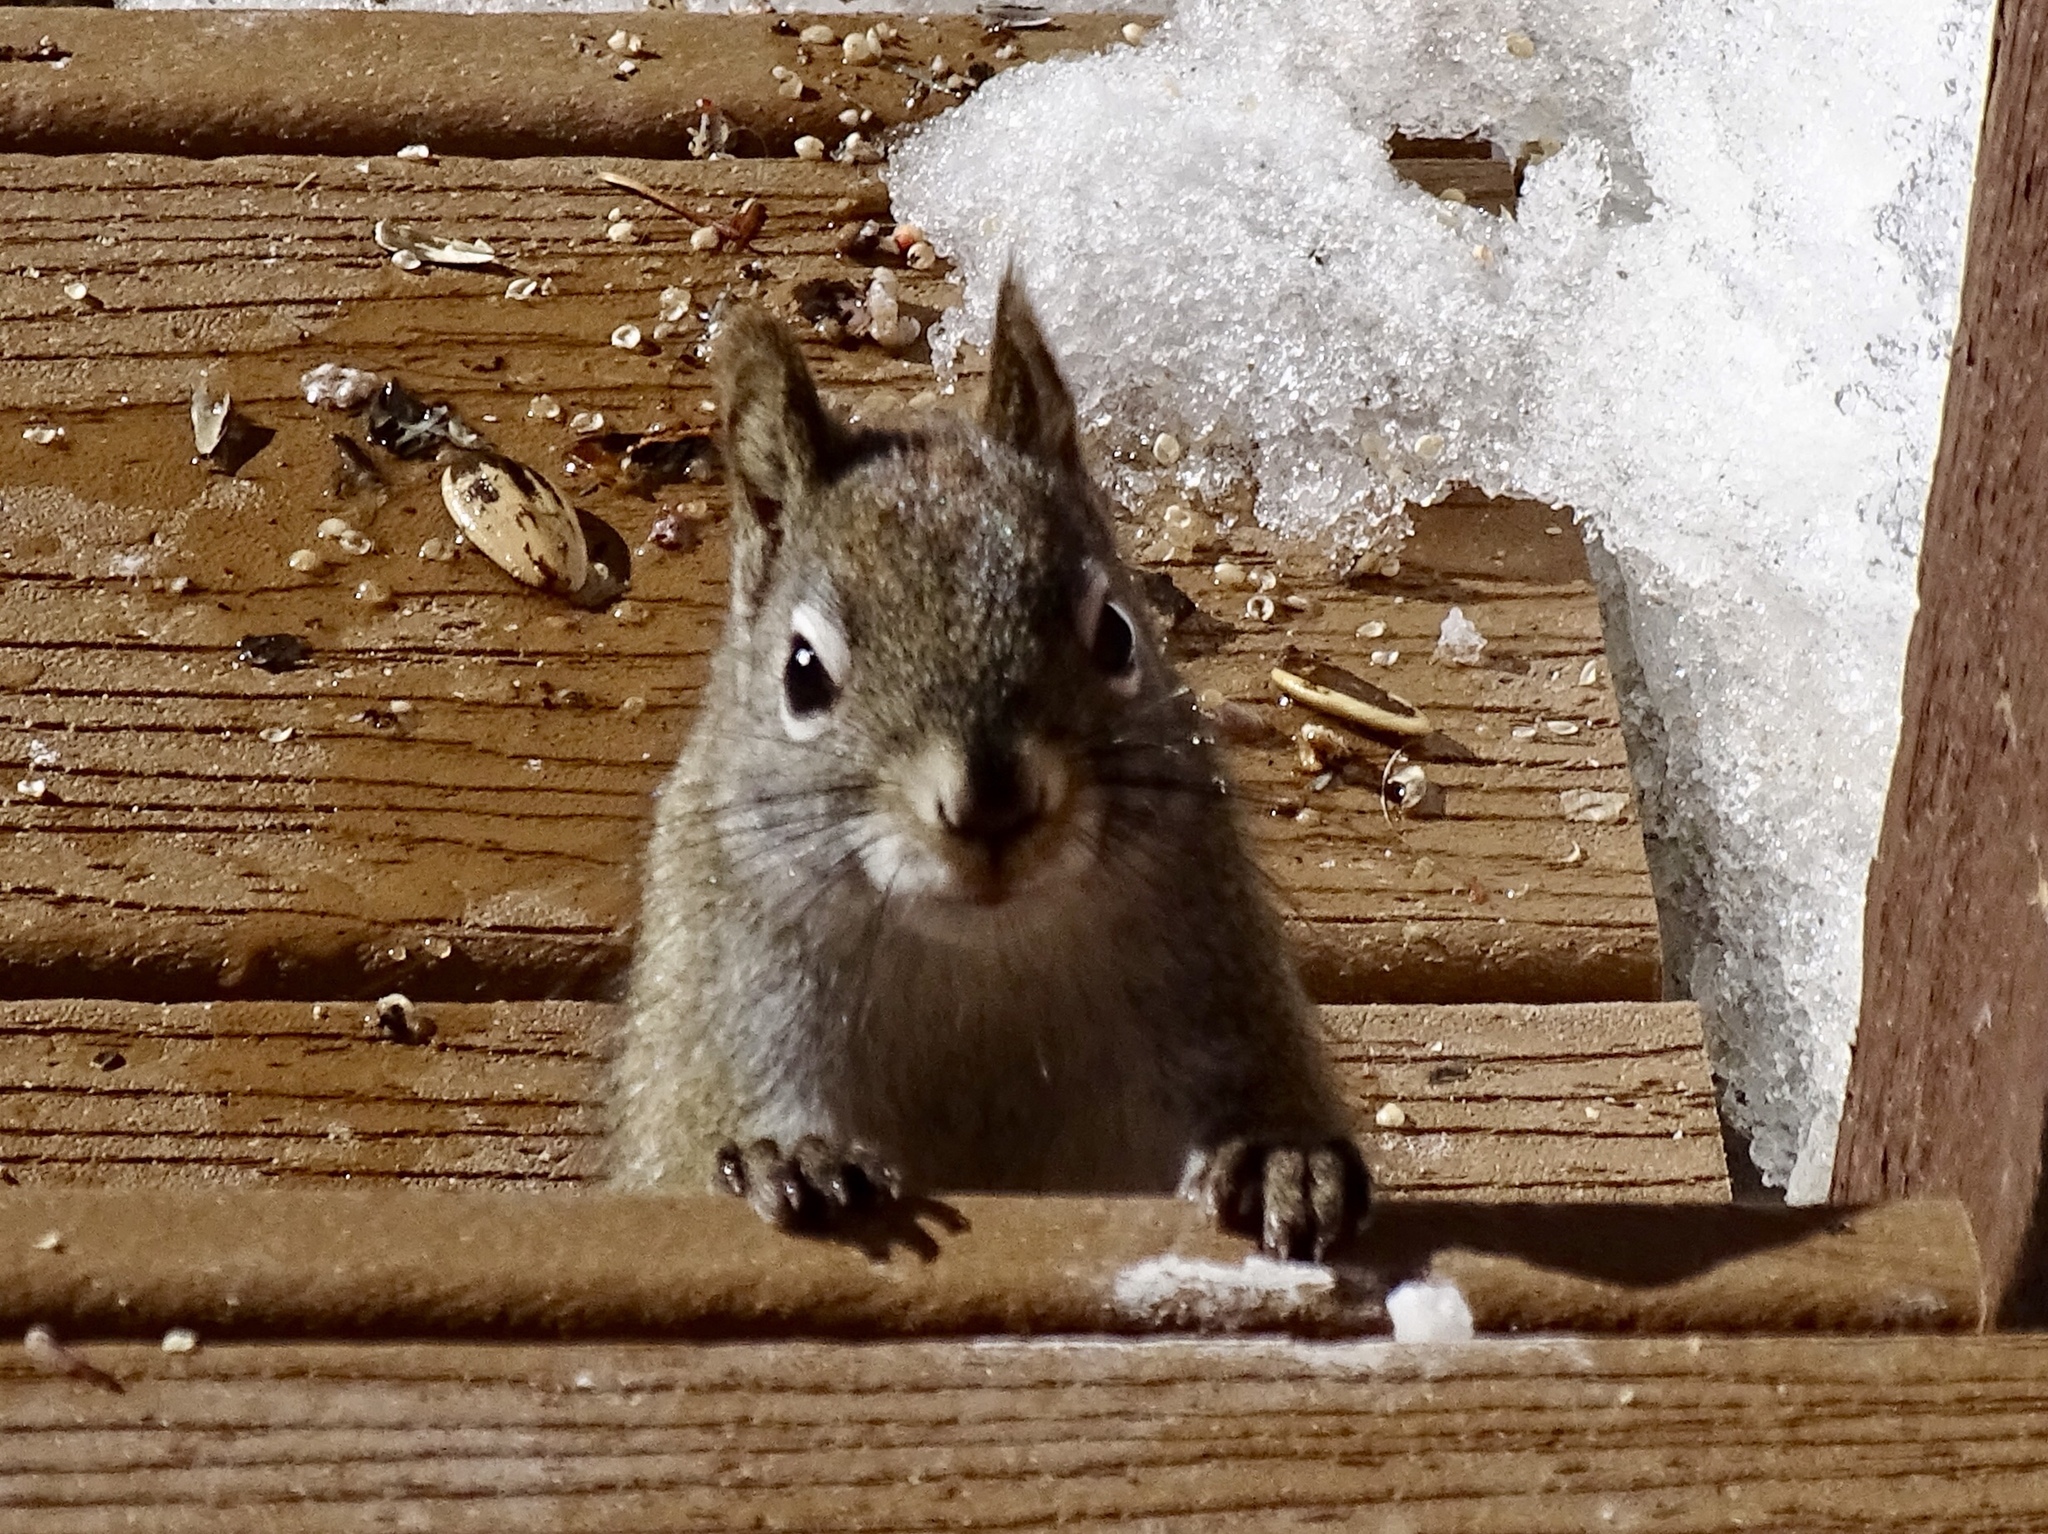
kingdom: Animalia
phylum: Chordata
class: Mammalia
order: Rodentia
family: Sciuridae
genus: Tamiasciurus
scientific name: Tamiasciurus hudsonicus
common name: Red squirrel
